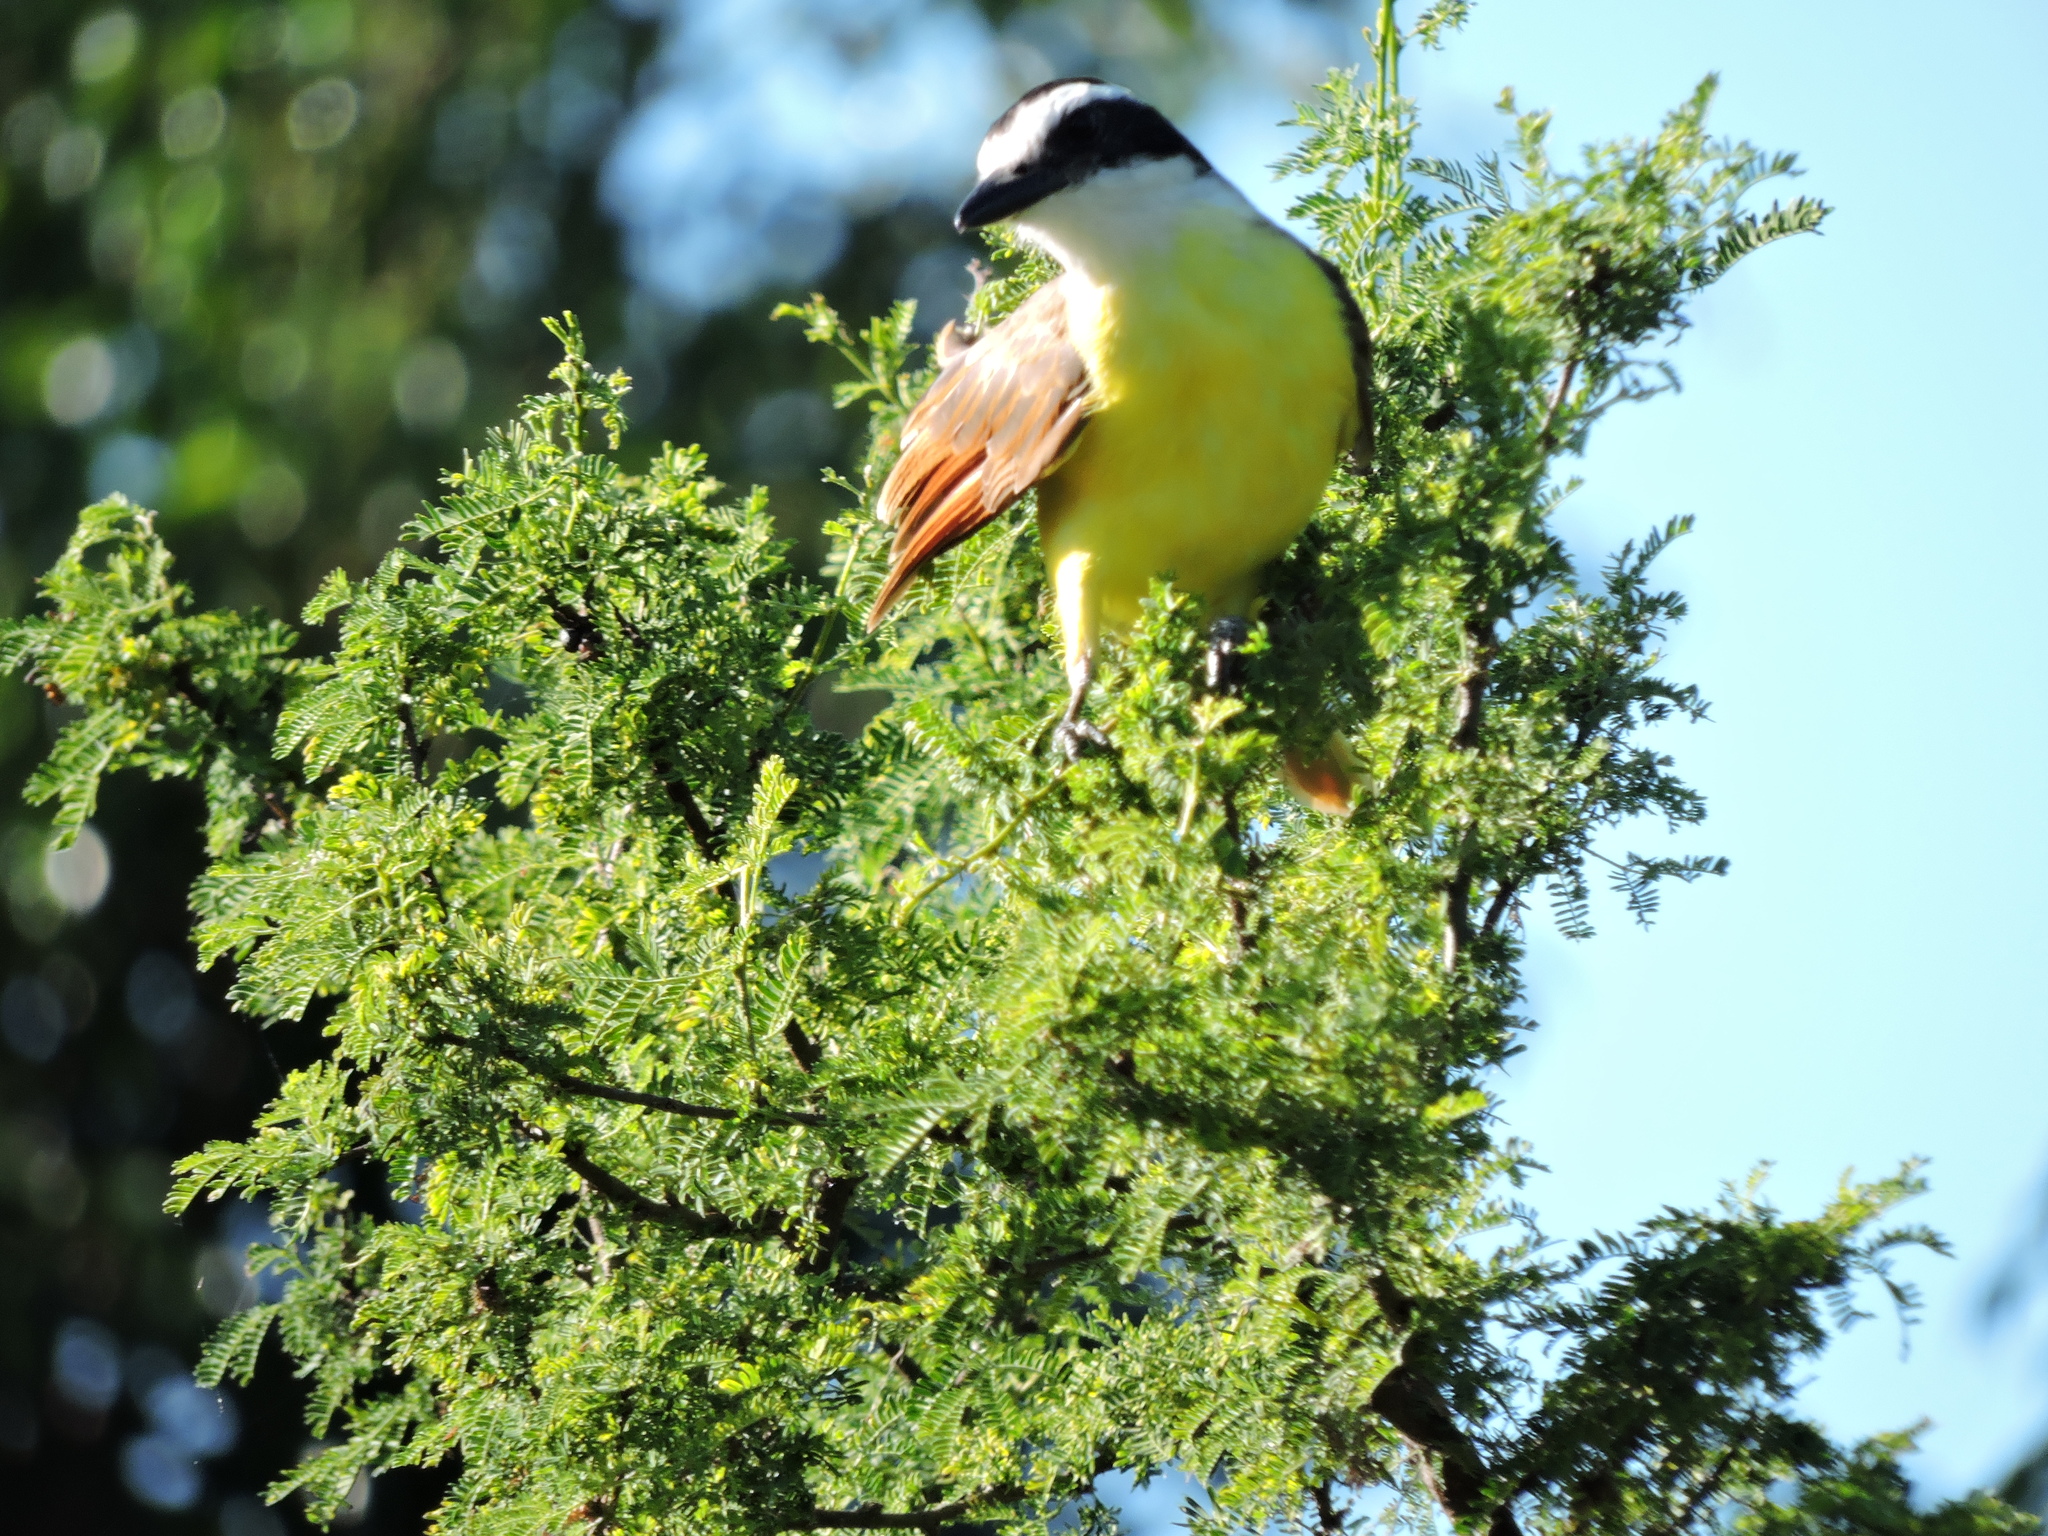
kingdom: Animalia
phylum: Chordata
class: Aves
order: Passeriformes
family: Tyrannidae
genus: Pitangus
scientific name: Pitangus sulphuratus
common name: Great kiskadee
